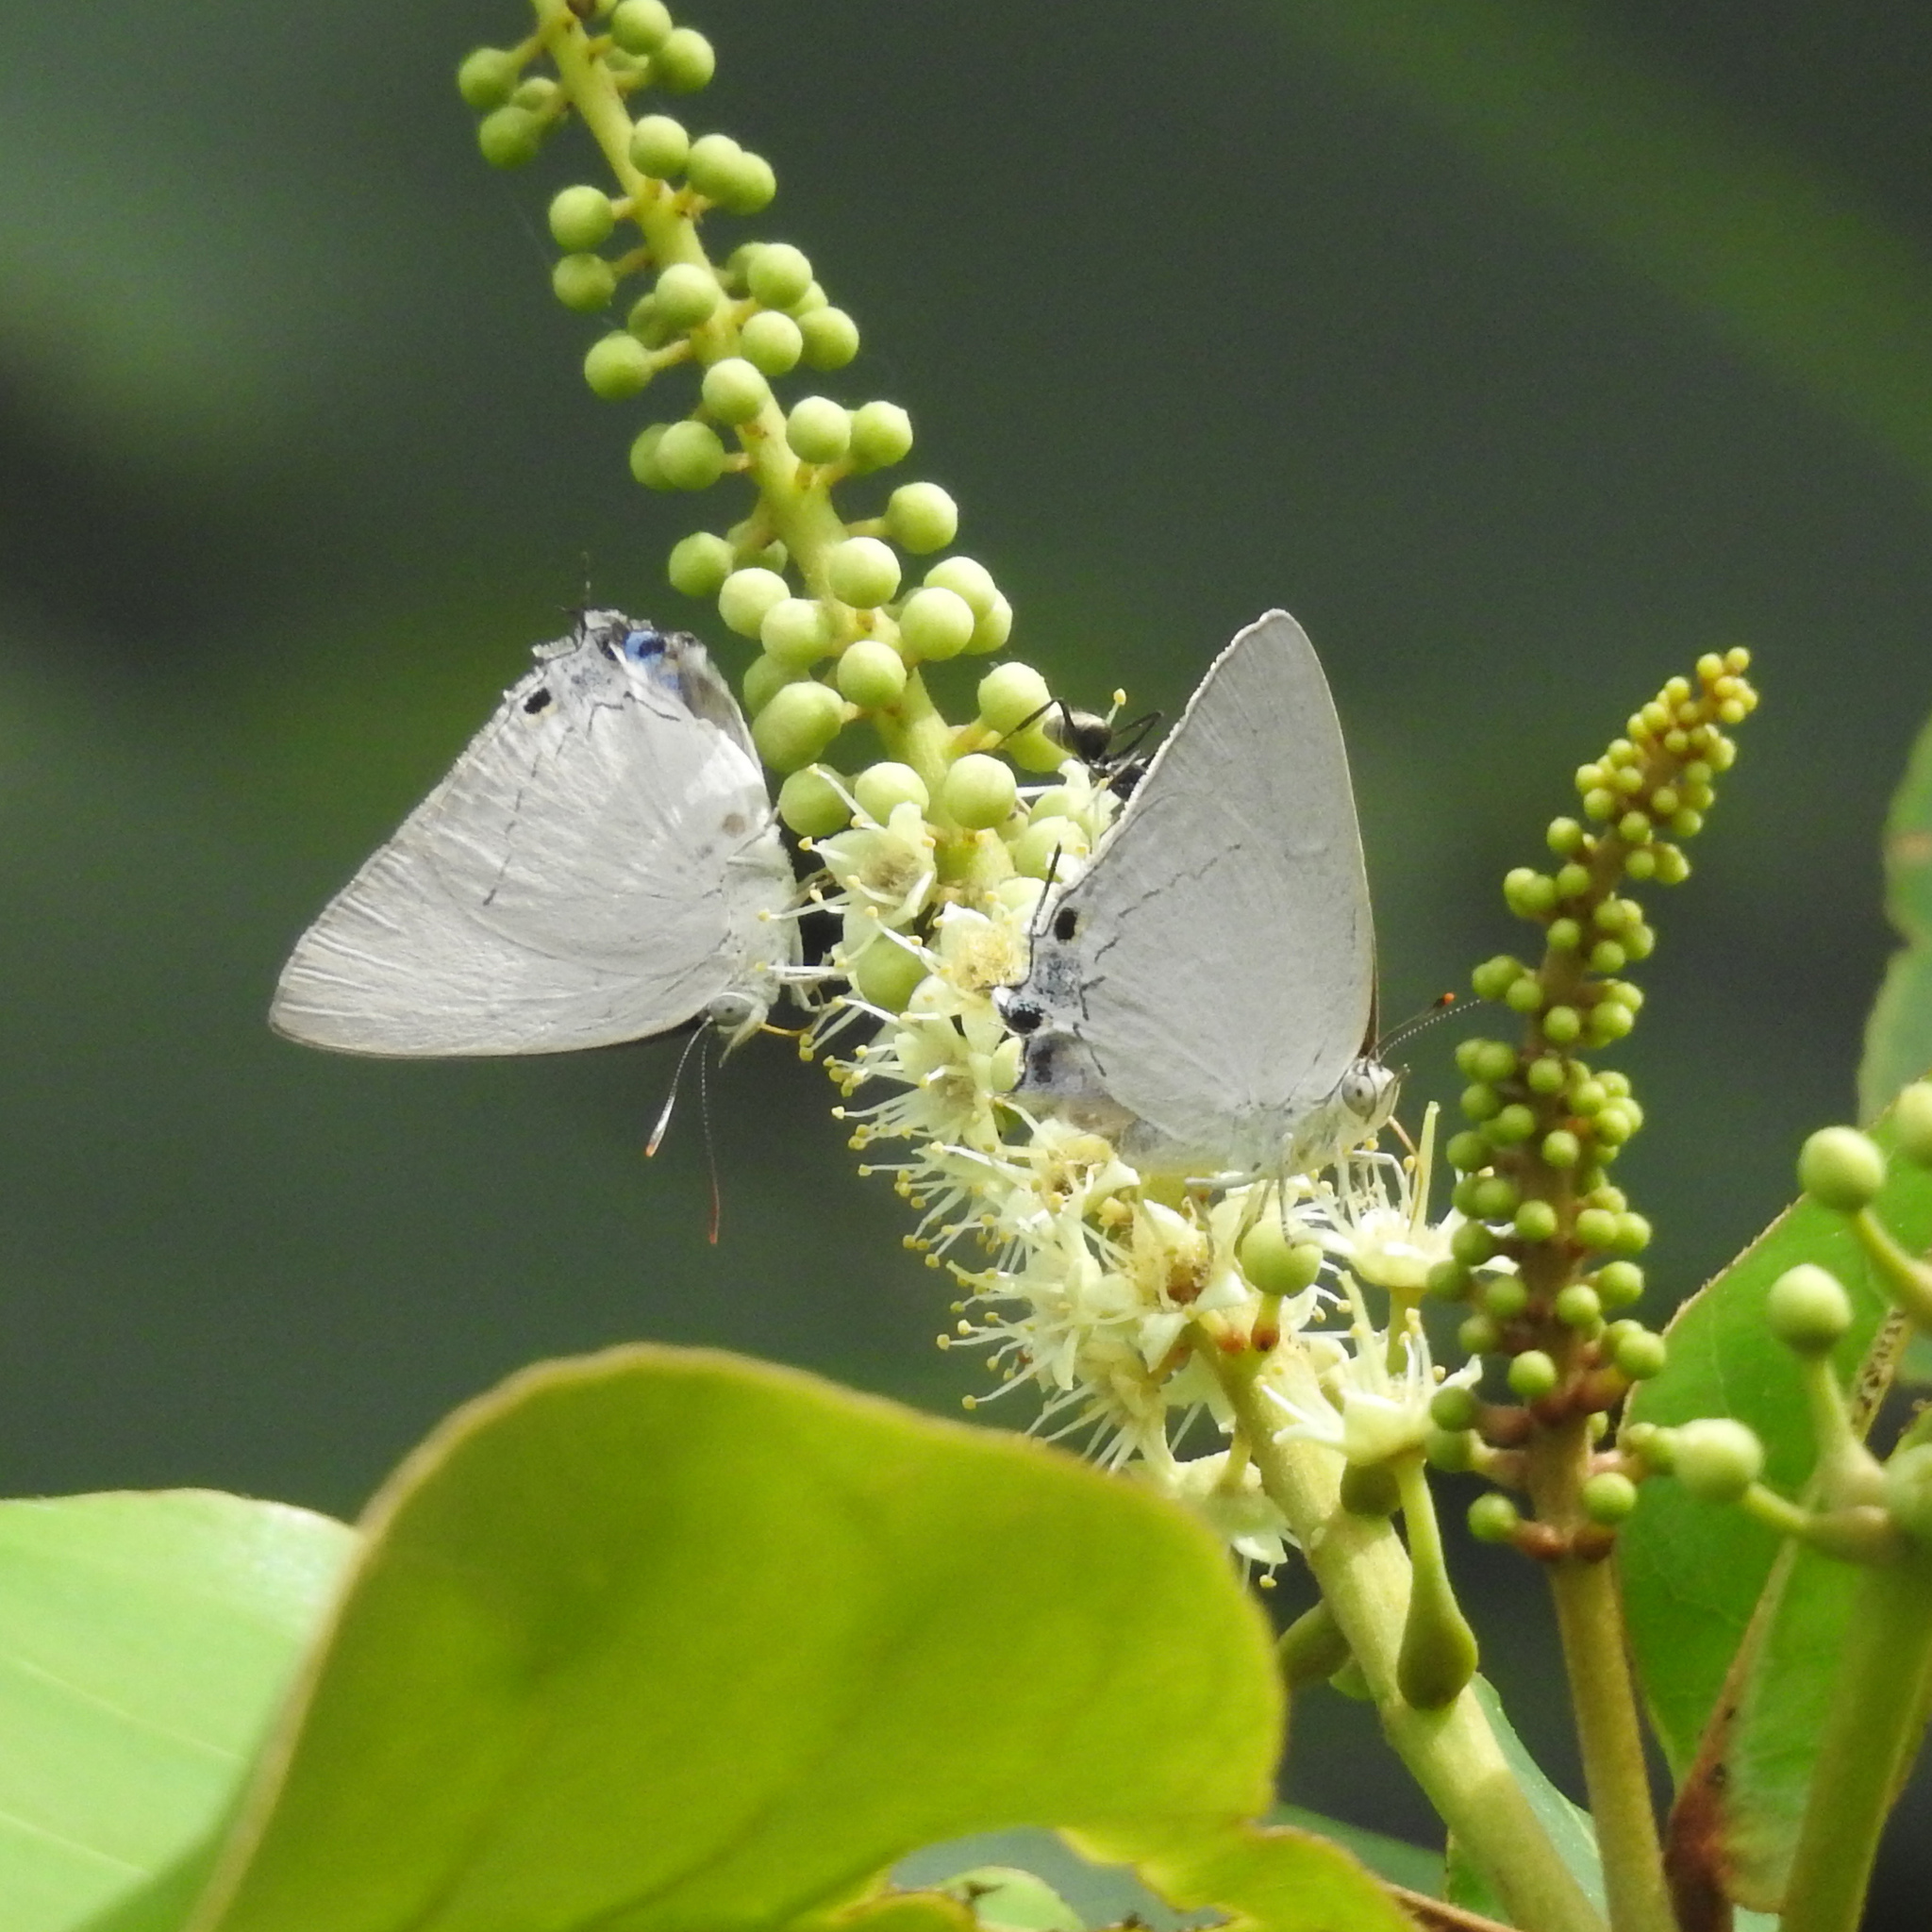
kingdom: Animalia
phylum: Arthropoda
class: Insecta
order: Lepidoptera
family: Lycaenidae
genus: Tajuria
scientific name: Tajuria jehana
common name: Plains blue royal
